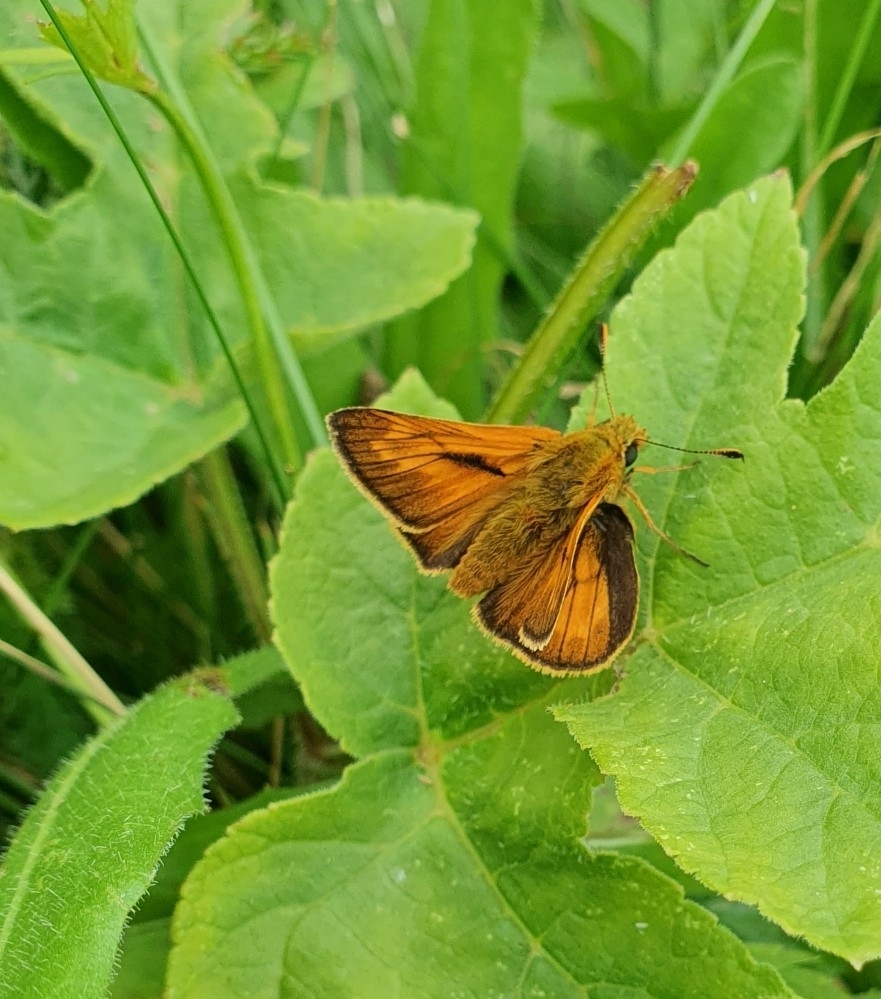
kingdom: Animalia
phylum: Arthropoda
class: Insecta
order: Lepidoptera
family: Hesperiidae
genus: Ochlodes
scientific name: Ochlodes venata
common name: Large skipper
